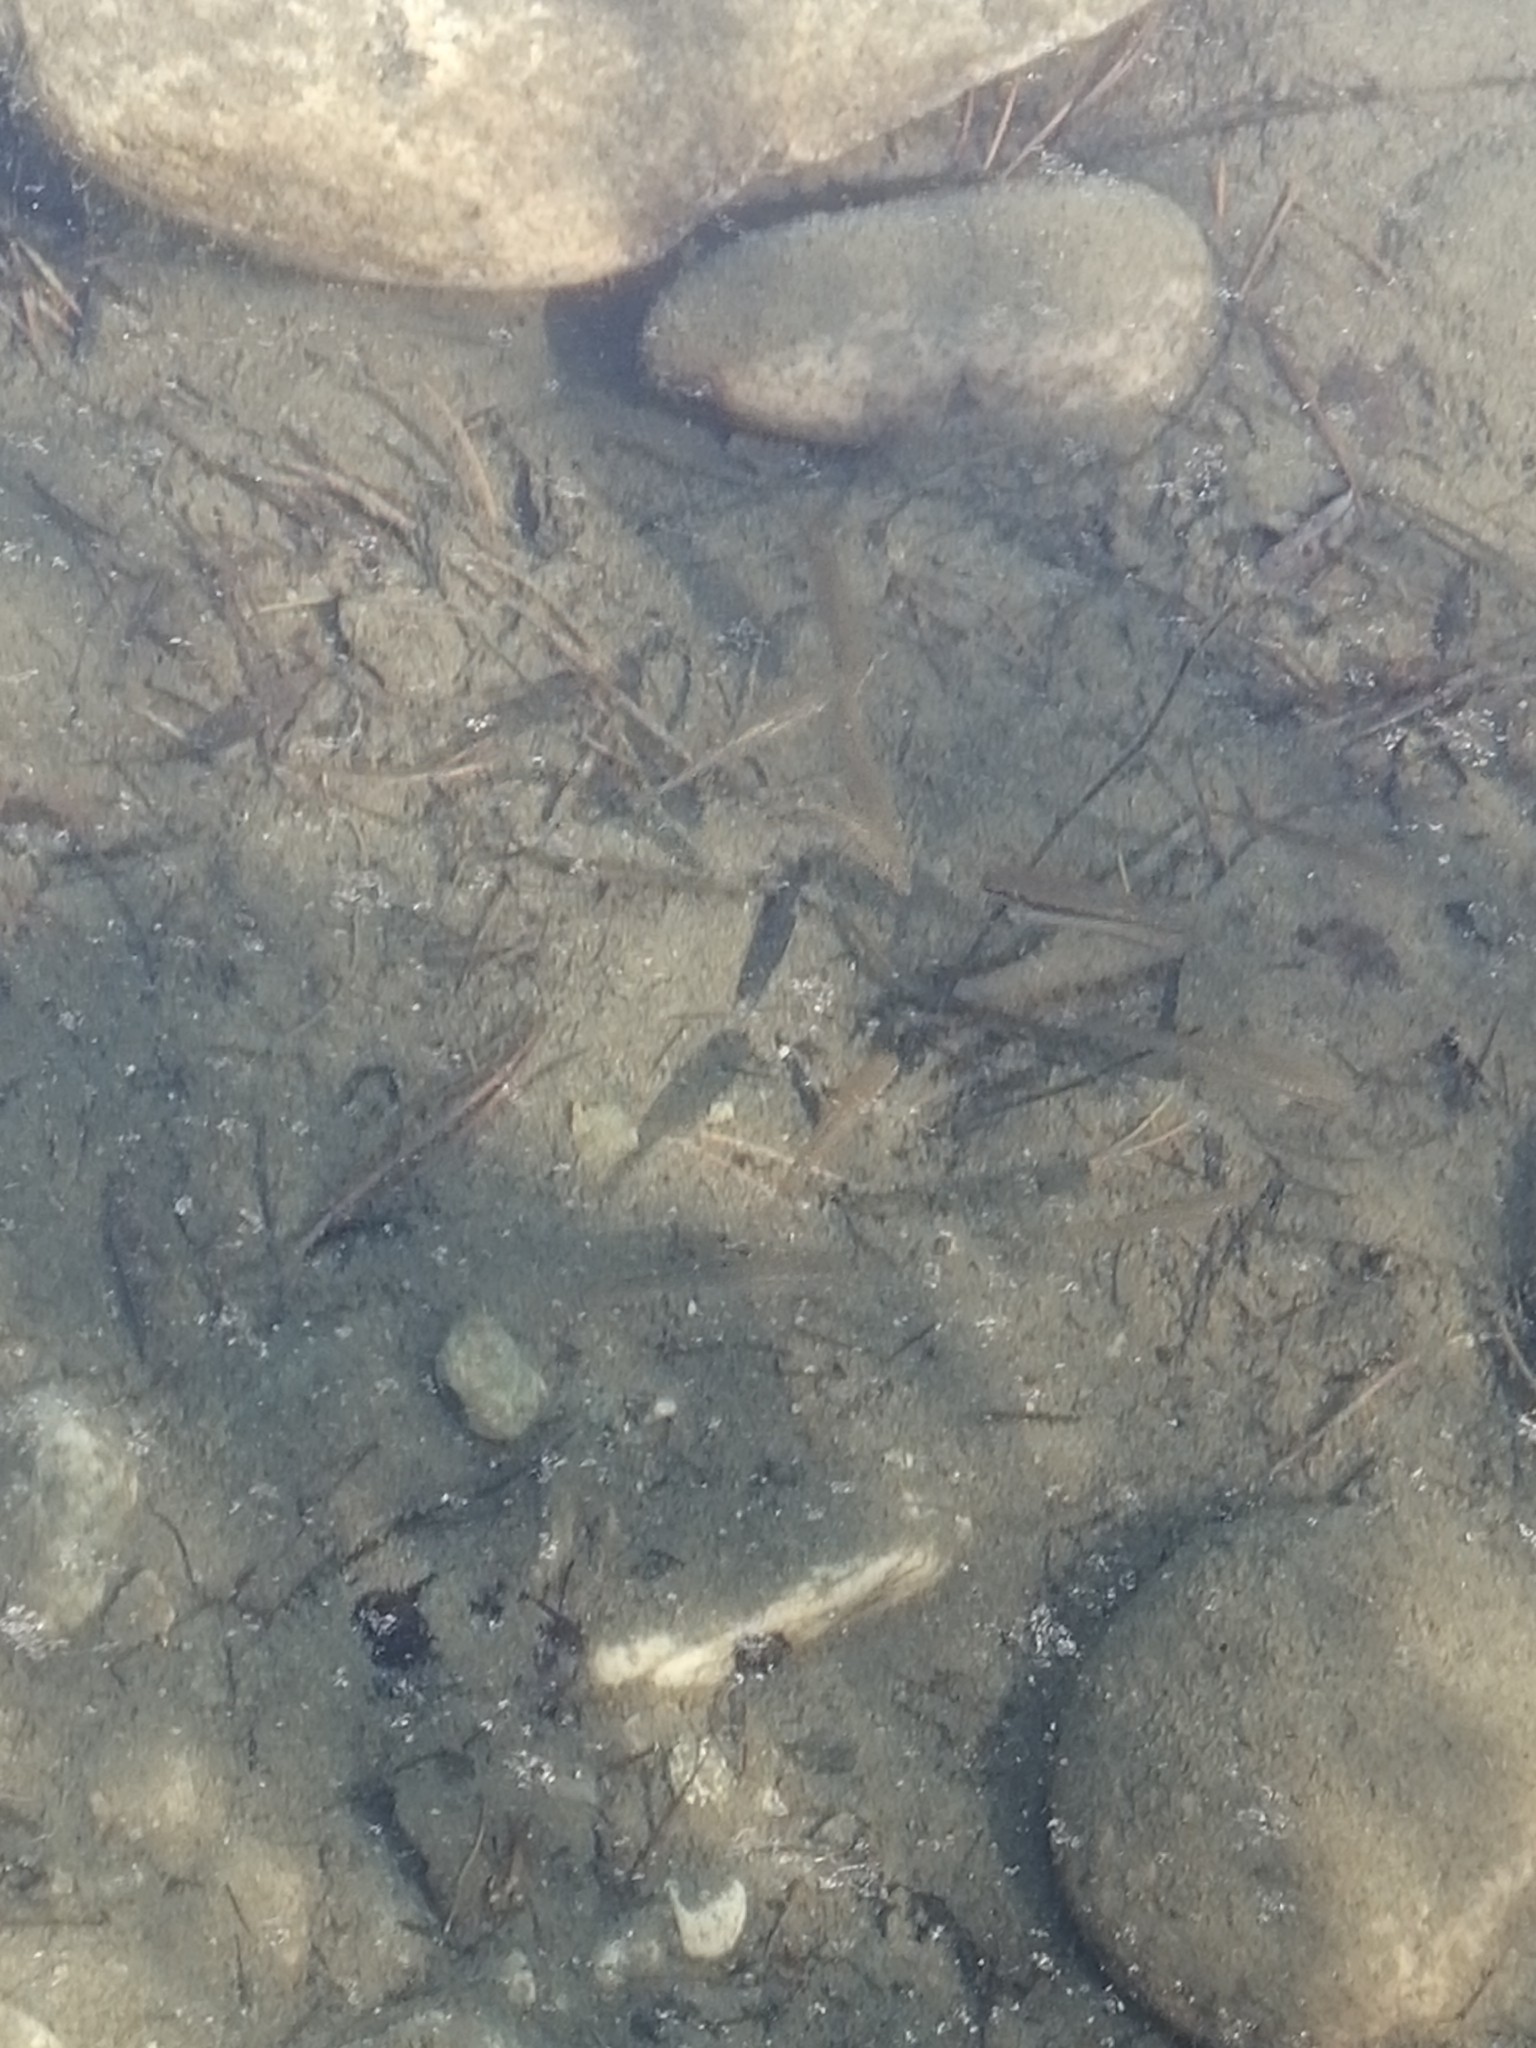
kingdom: Animalia
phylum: Chordata
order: Cypriniformes
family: Cyprinidae
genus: Phoxinus
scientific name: Phoxinus ujmonensis
